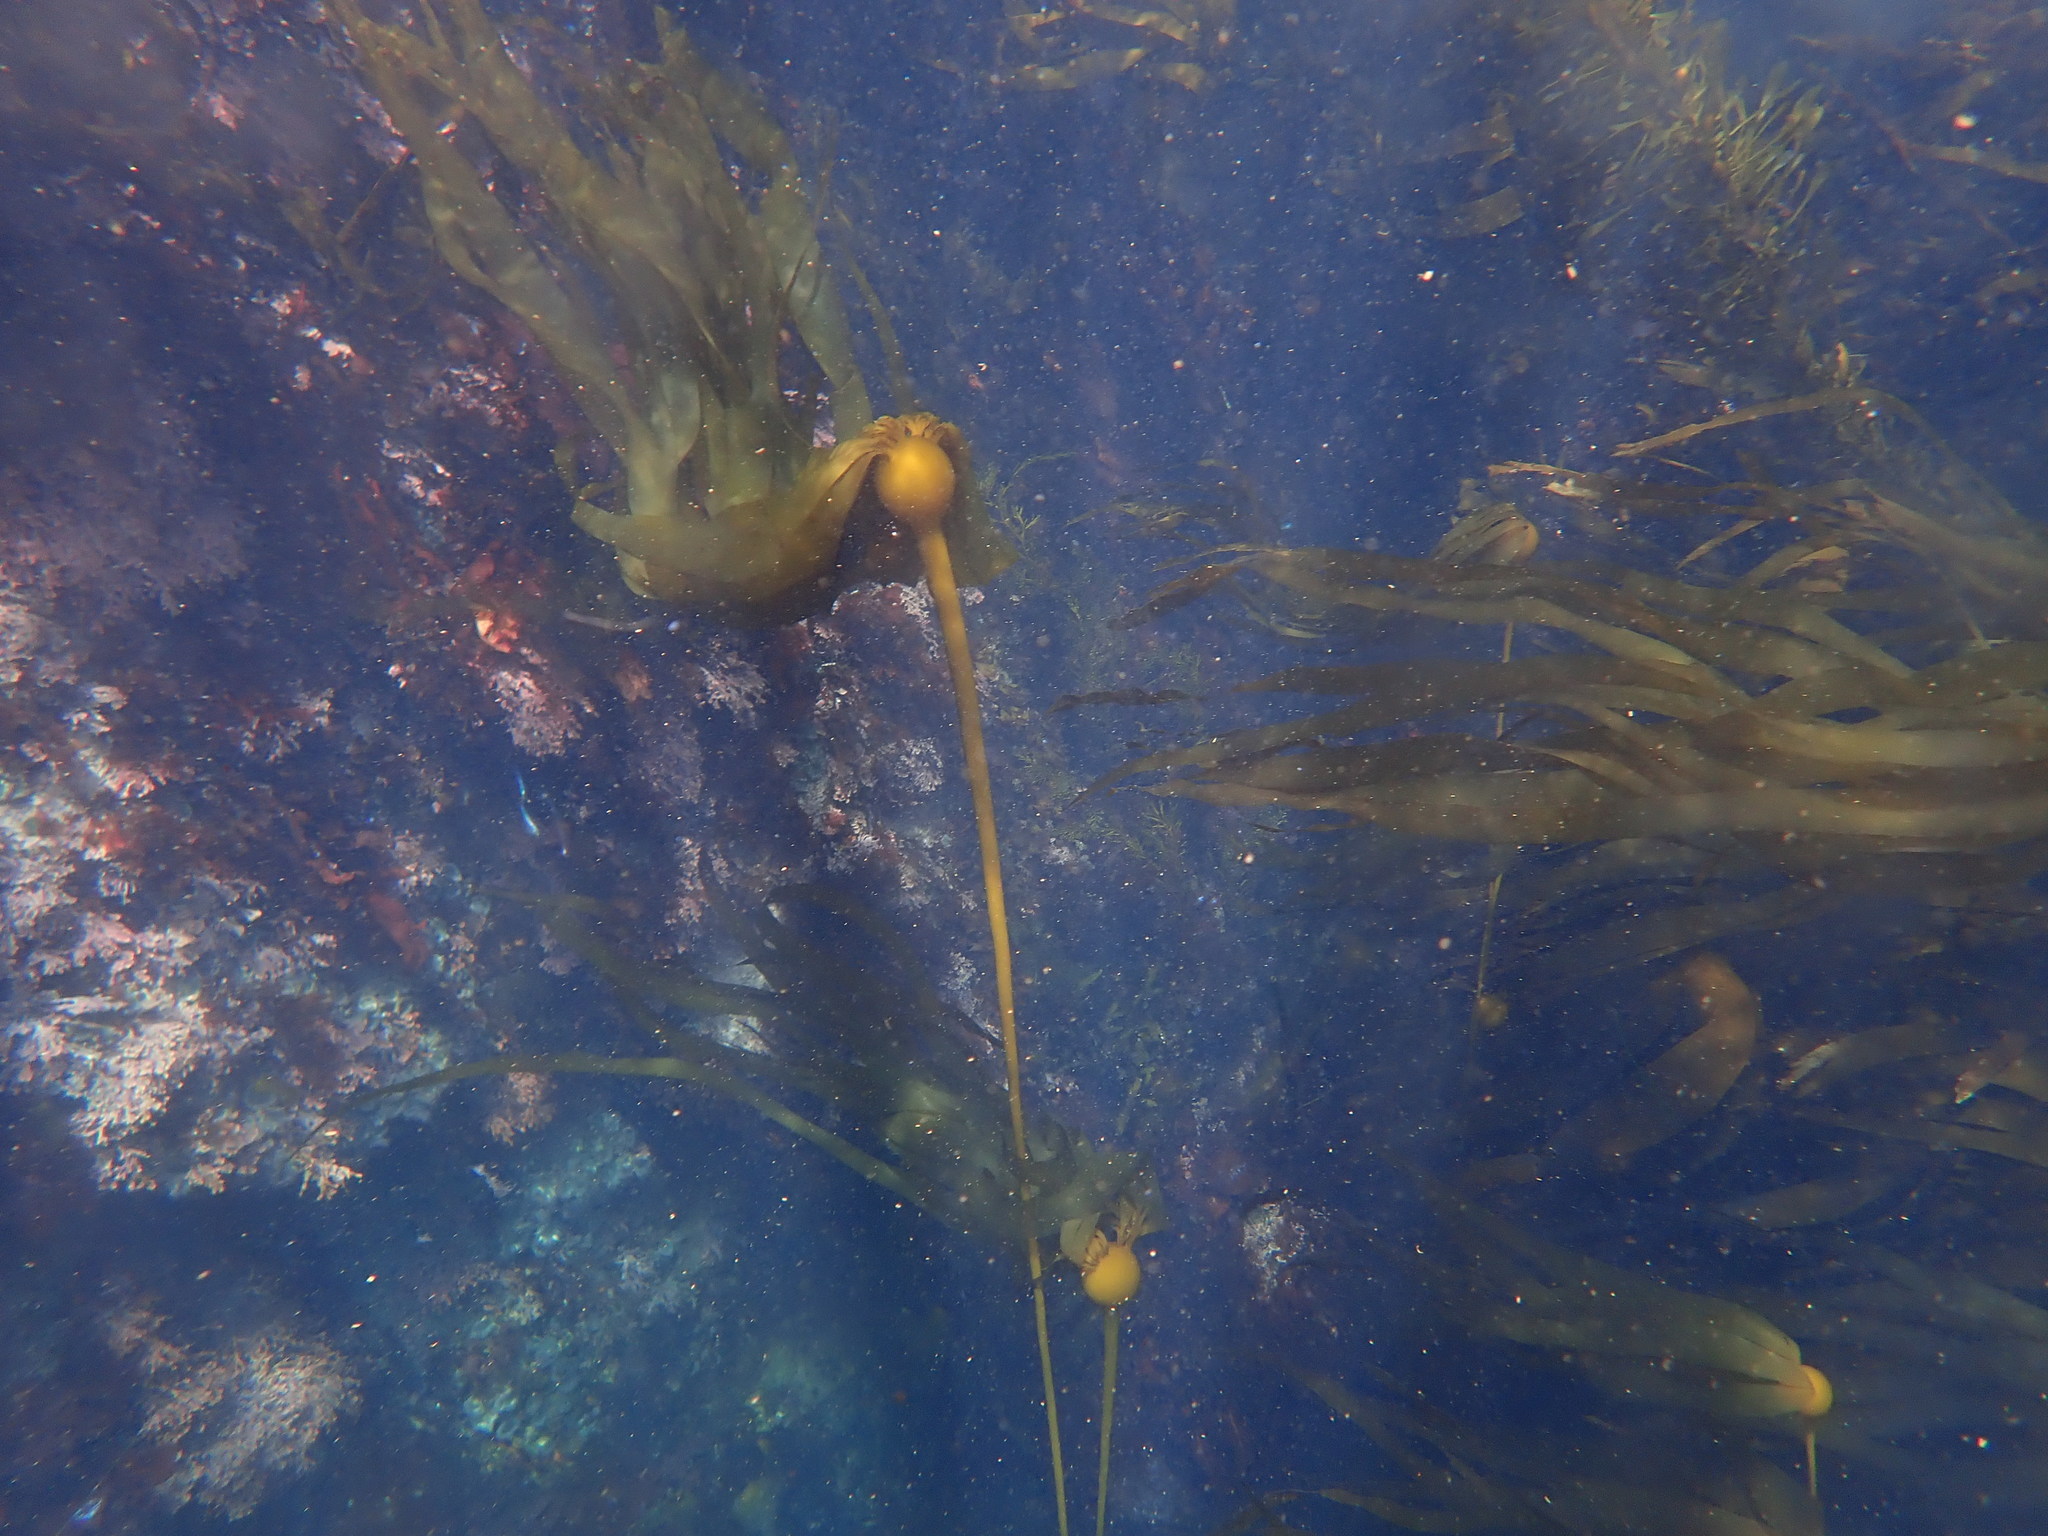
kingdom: Chromista
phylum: Ochrophyta
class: Phaeophyceae
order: Laminariales
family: Laminariaceae
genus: Nereocystis
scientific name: Nereocystis luetkeana
